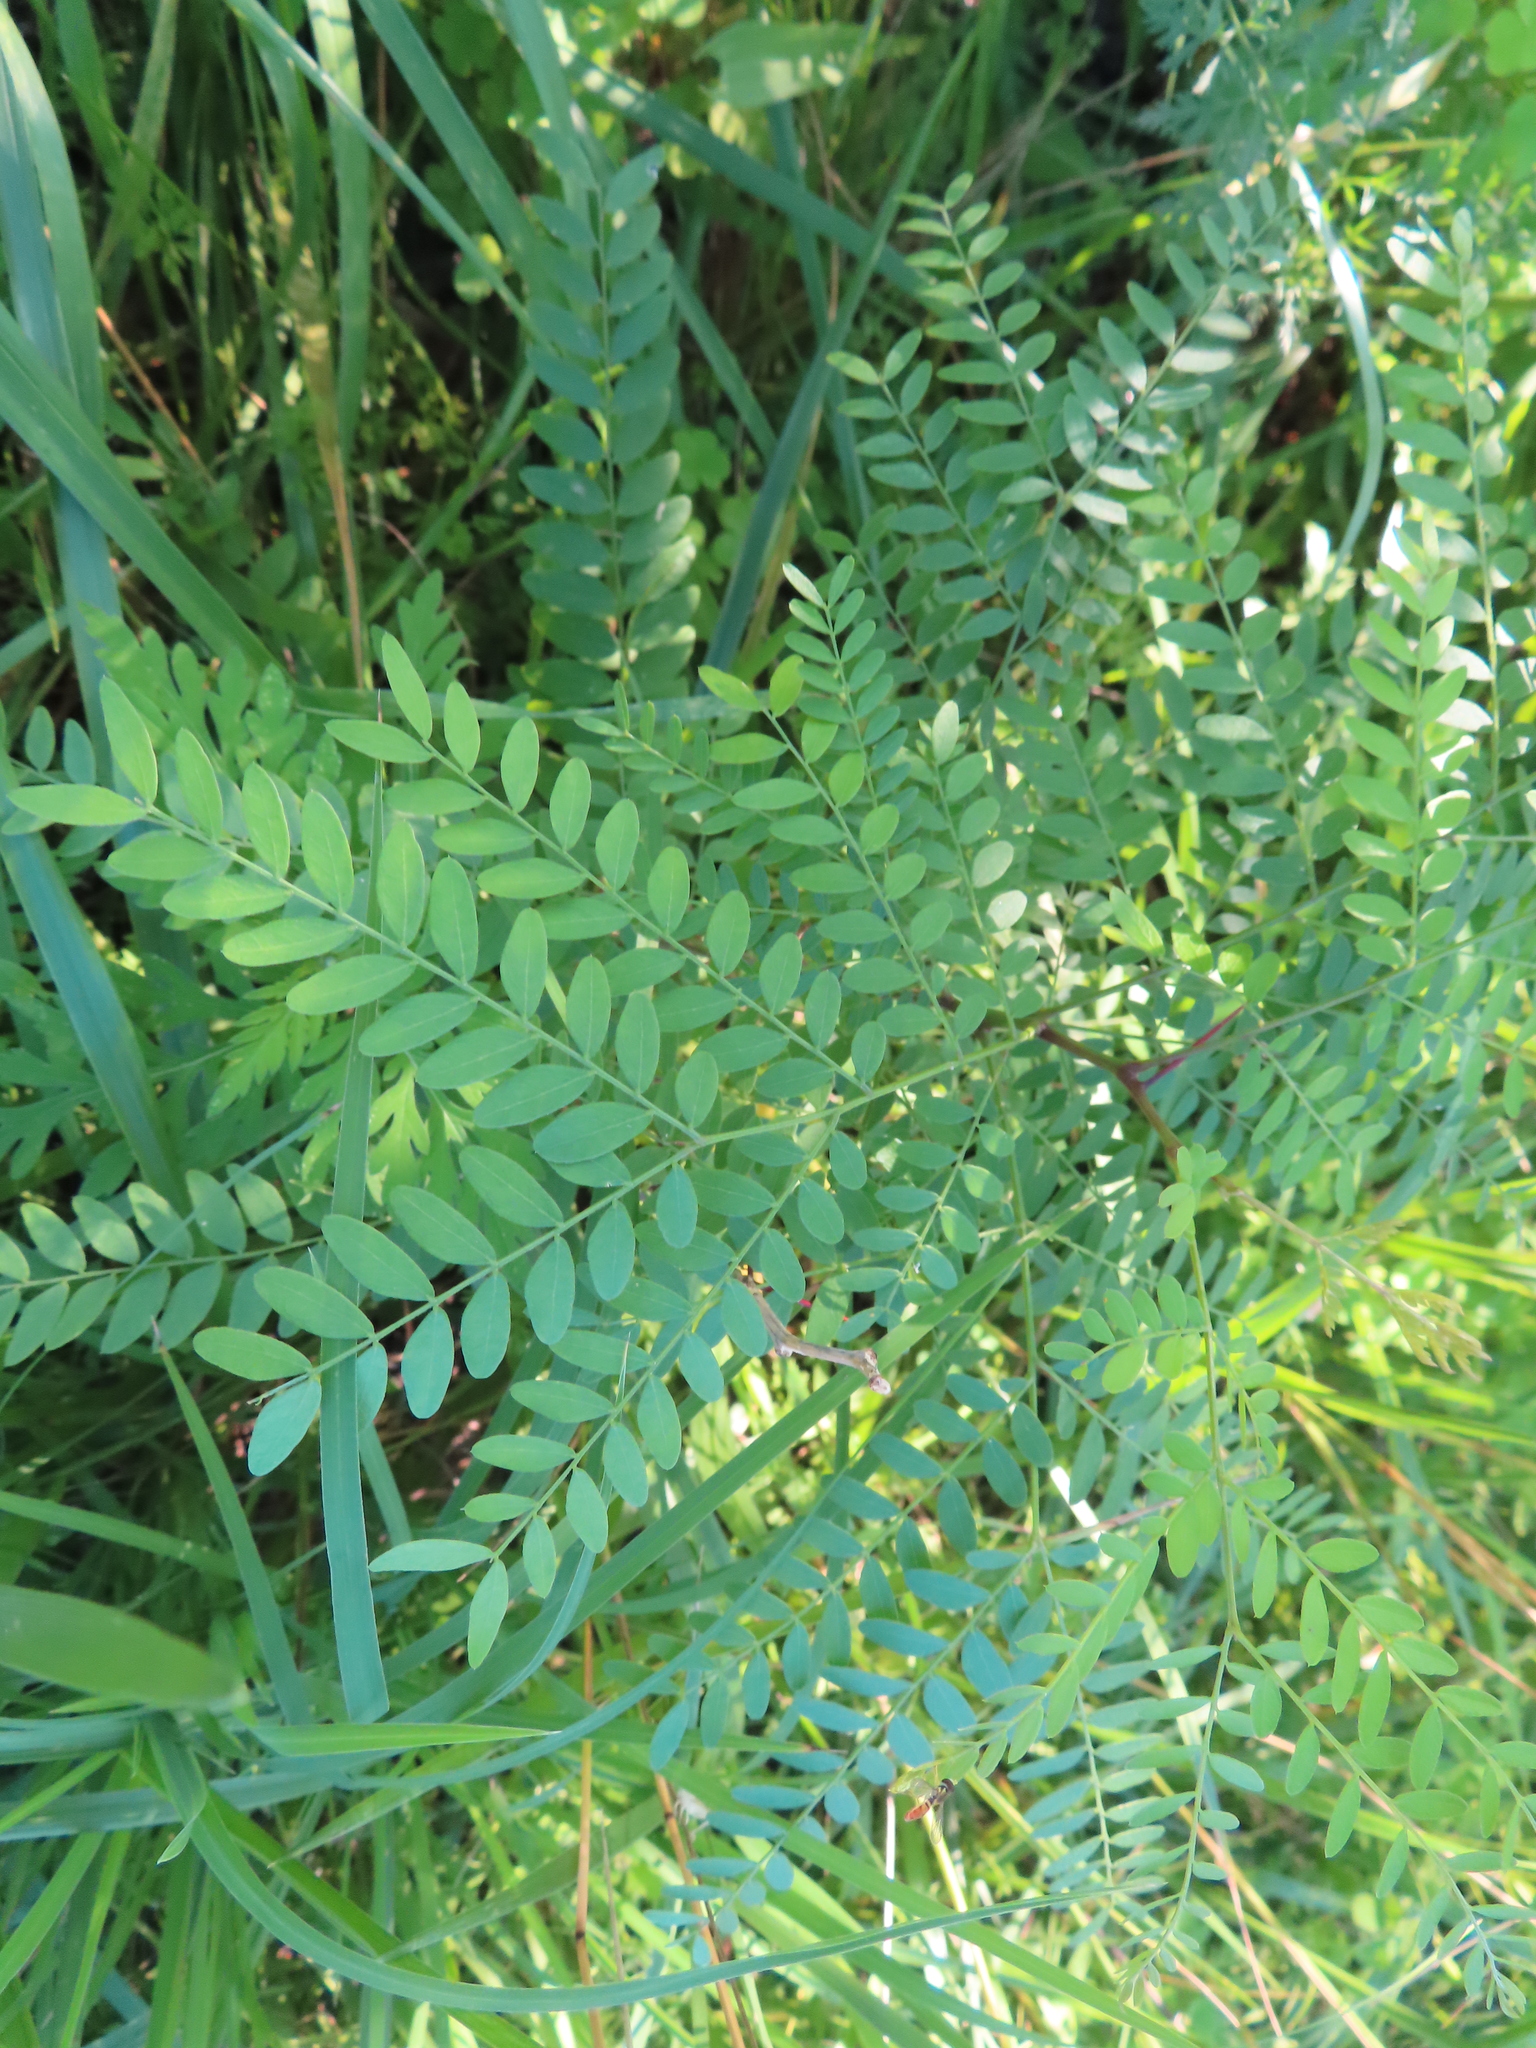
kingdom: Plantae
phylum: Tracheophyta
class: Magnoliopsida
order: Fabales
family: Fabaceae
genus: Gleditsia
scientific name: Gleditsia triacanthos
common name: Common honeylocust
